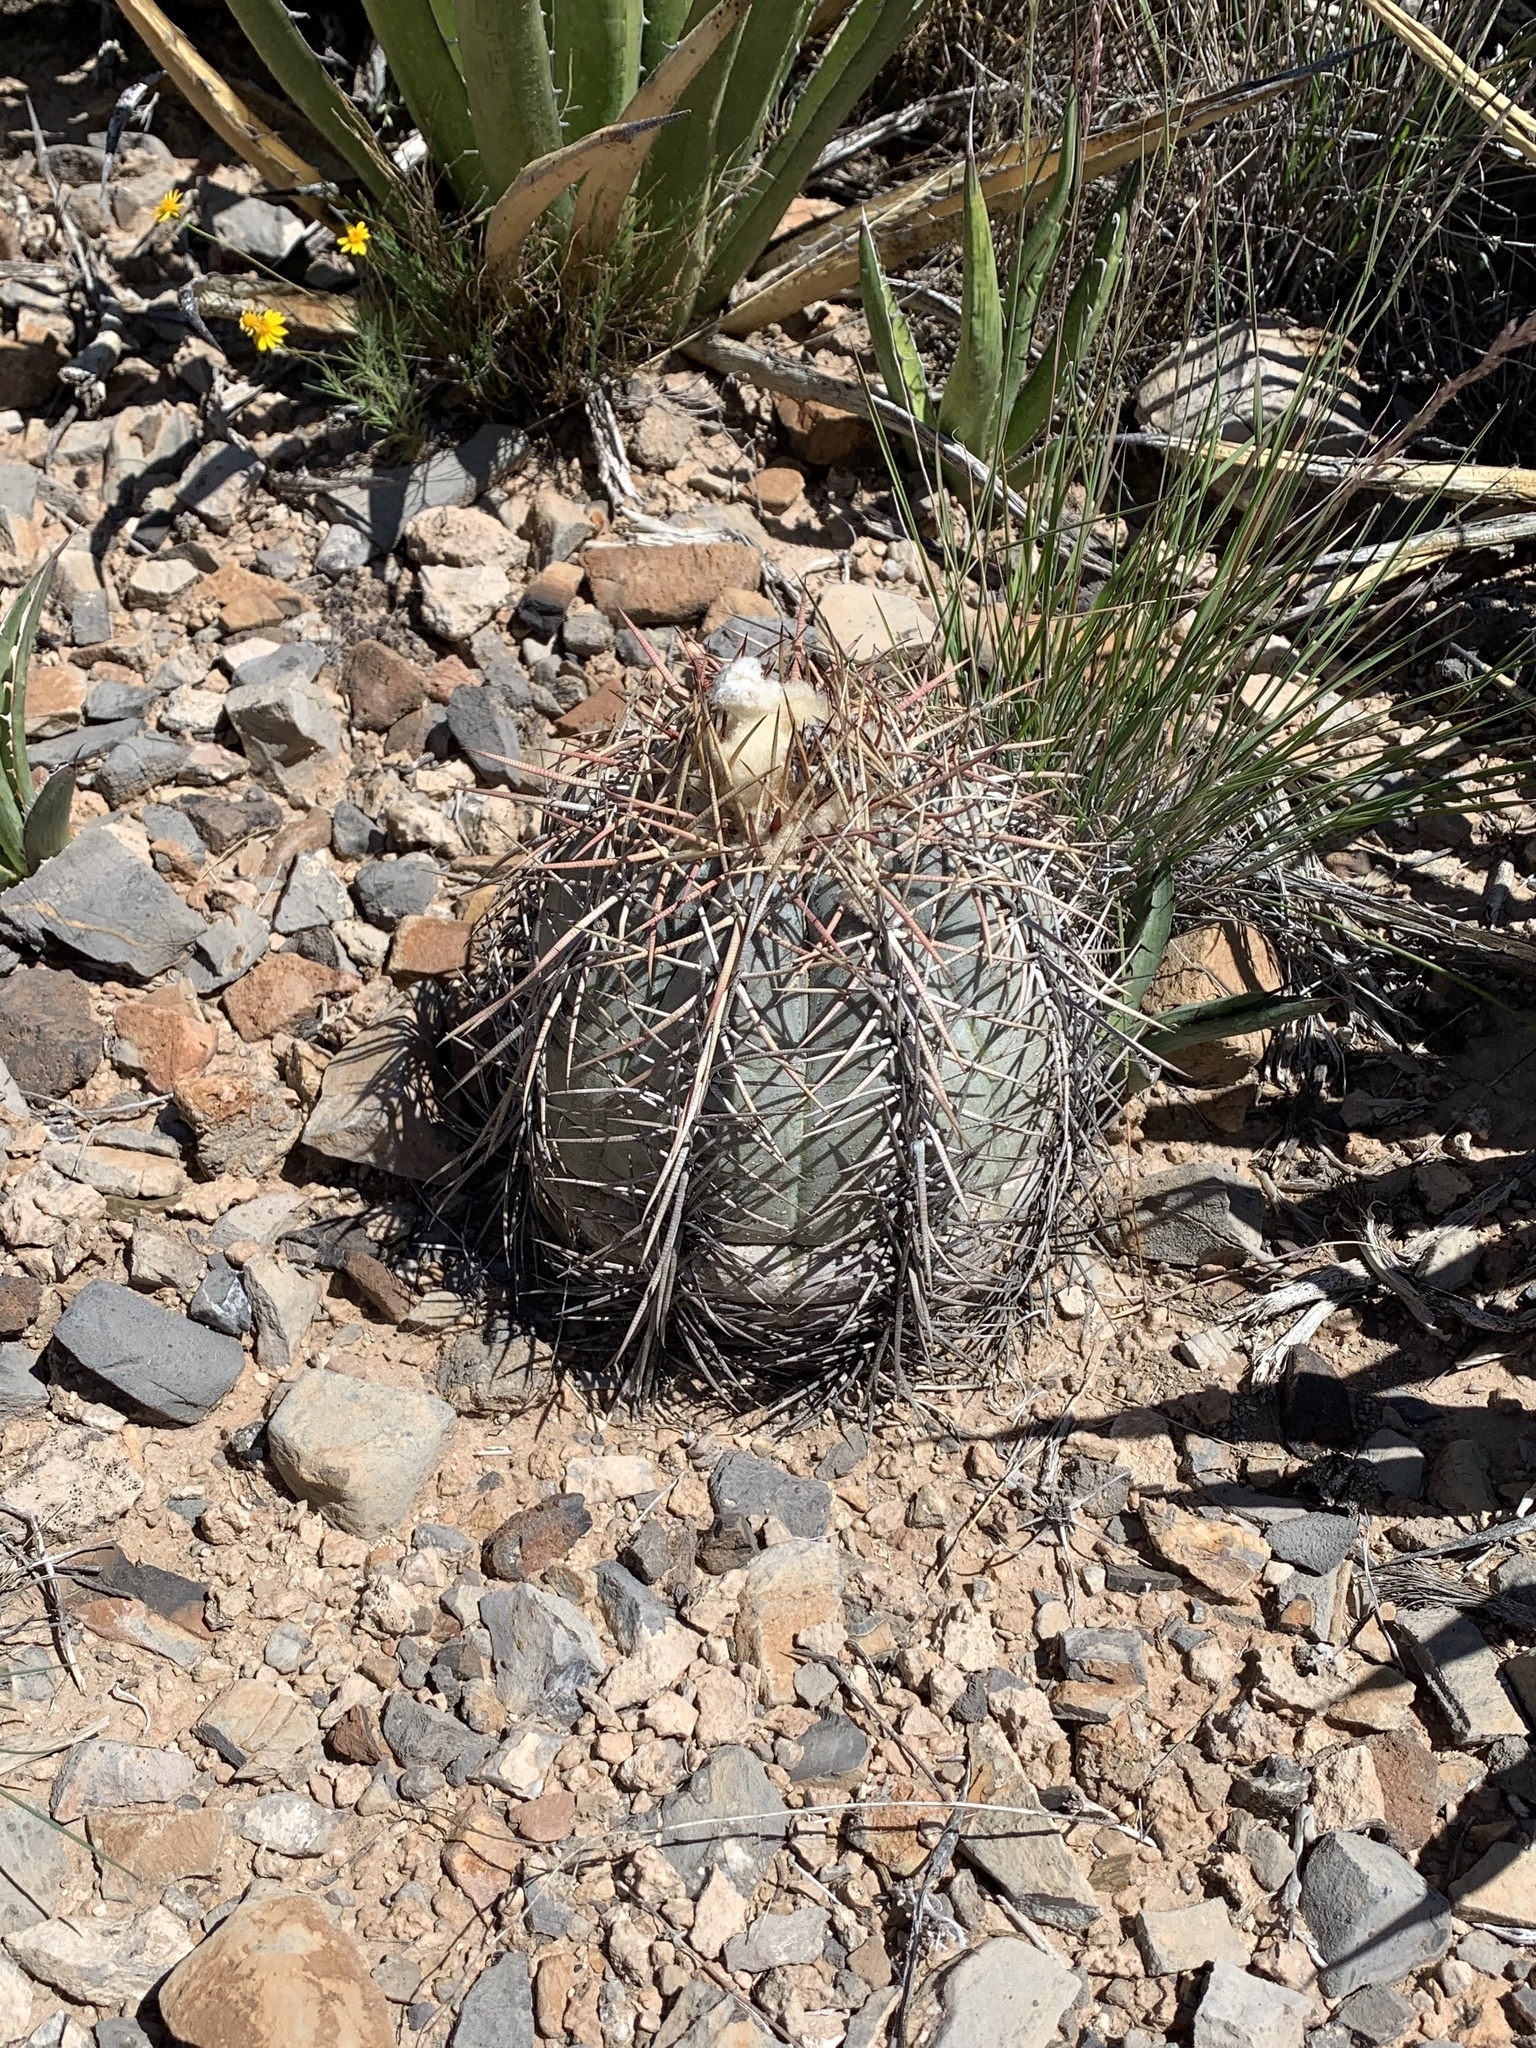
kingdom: Plantae
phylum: Tracheophyta
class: Magnoliopsida
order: Caryophyllales
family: Cactaceae
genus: Echinocactus
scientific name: Echinocactus horizonthalonius
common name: Devilshead
